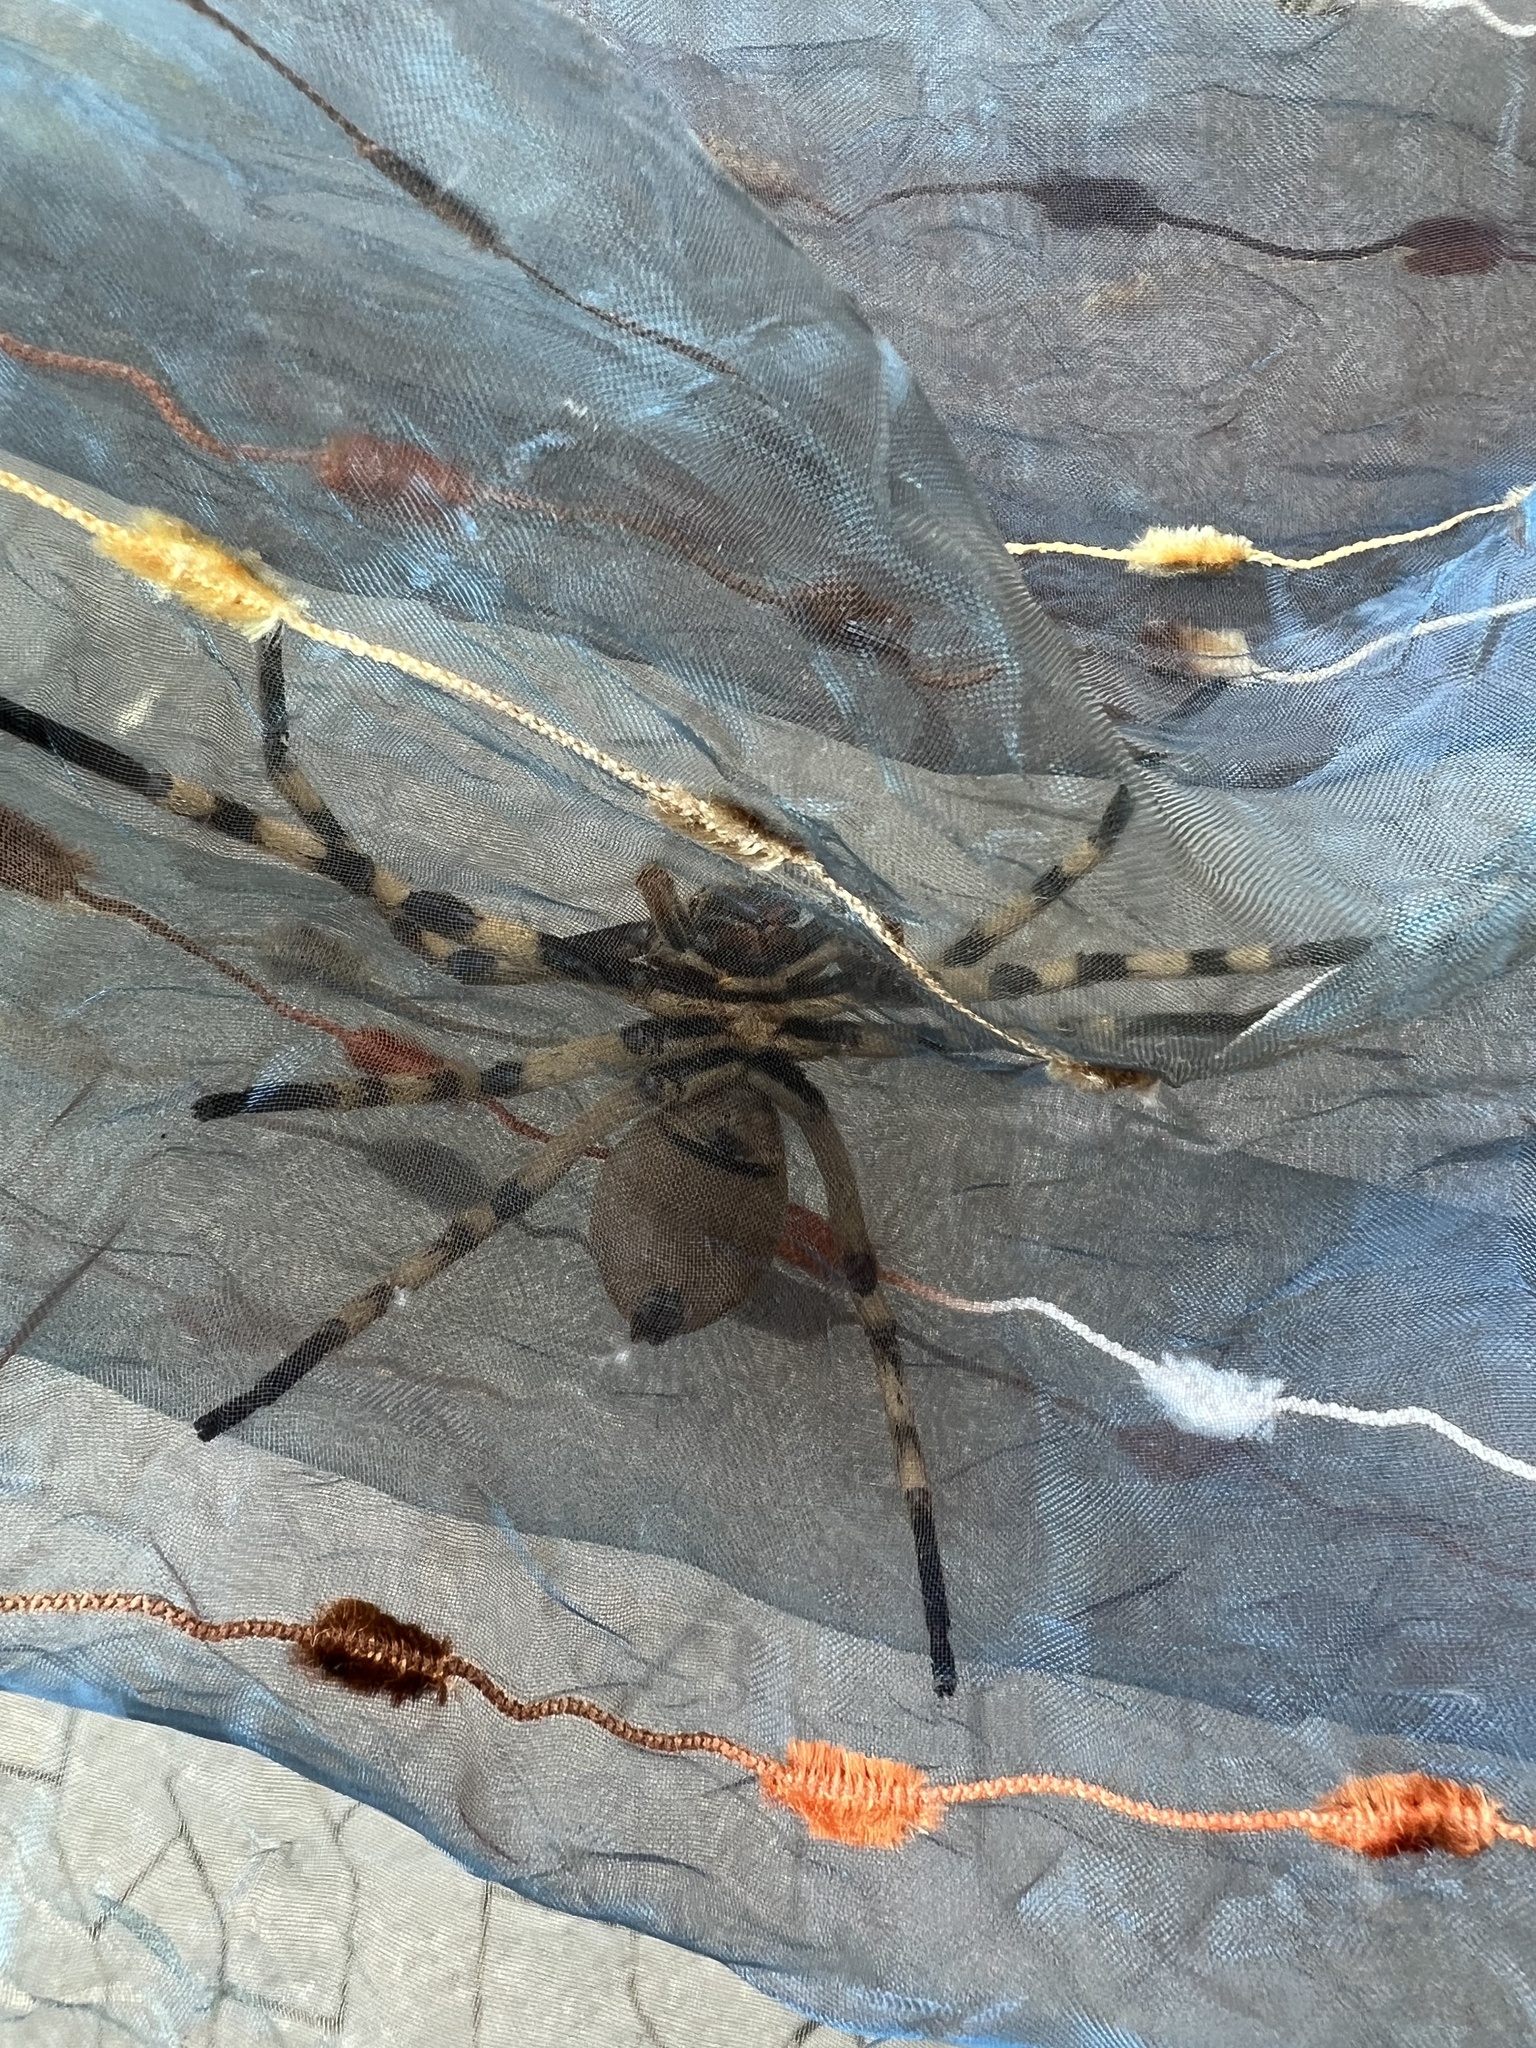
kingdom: Animalia
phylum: Arthropoda
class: Arachnida
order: Araneae
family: Sparassidae
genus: Palystes
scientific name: Palystes superciliosus
